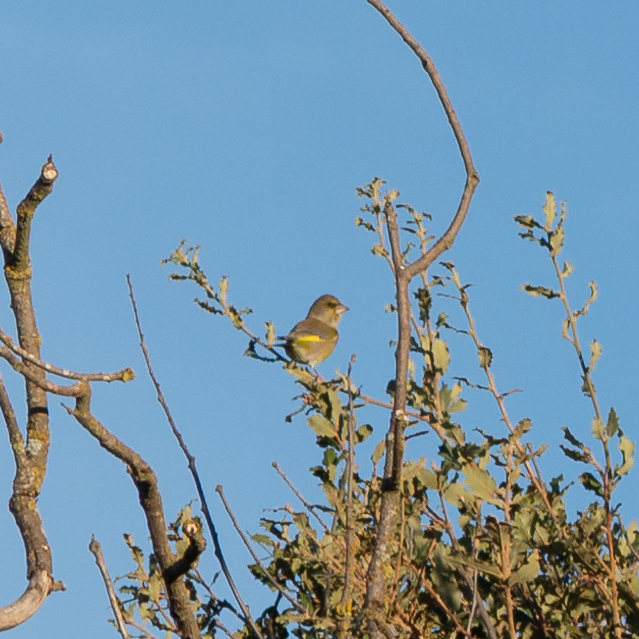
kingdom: Plantae
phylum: Tracheophyta
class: Liliopsida
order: Poales
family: Poaceae
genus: Chloris
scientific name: Chloris chloris
